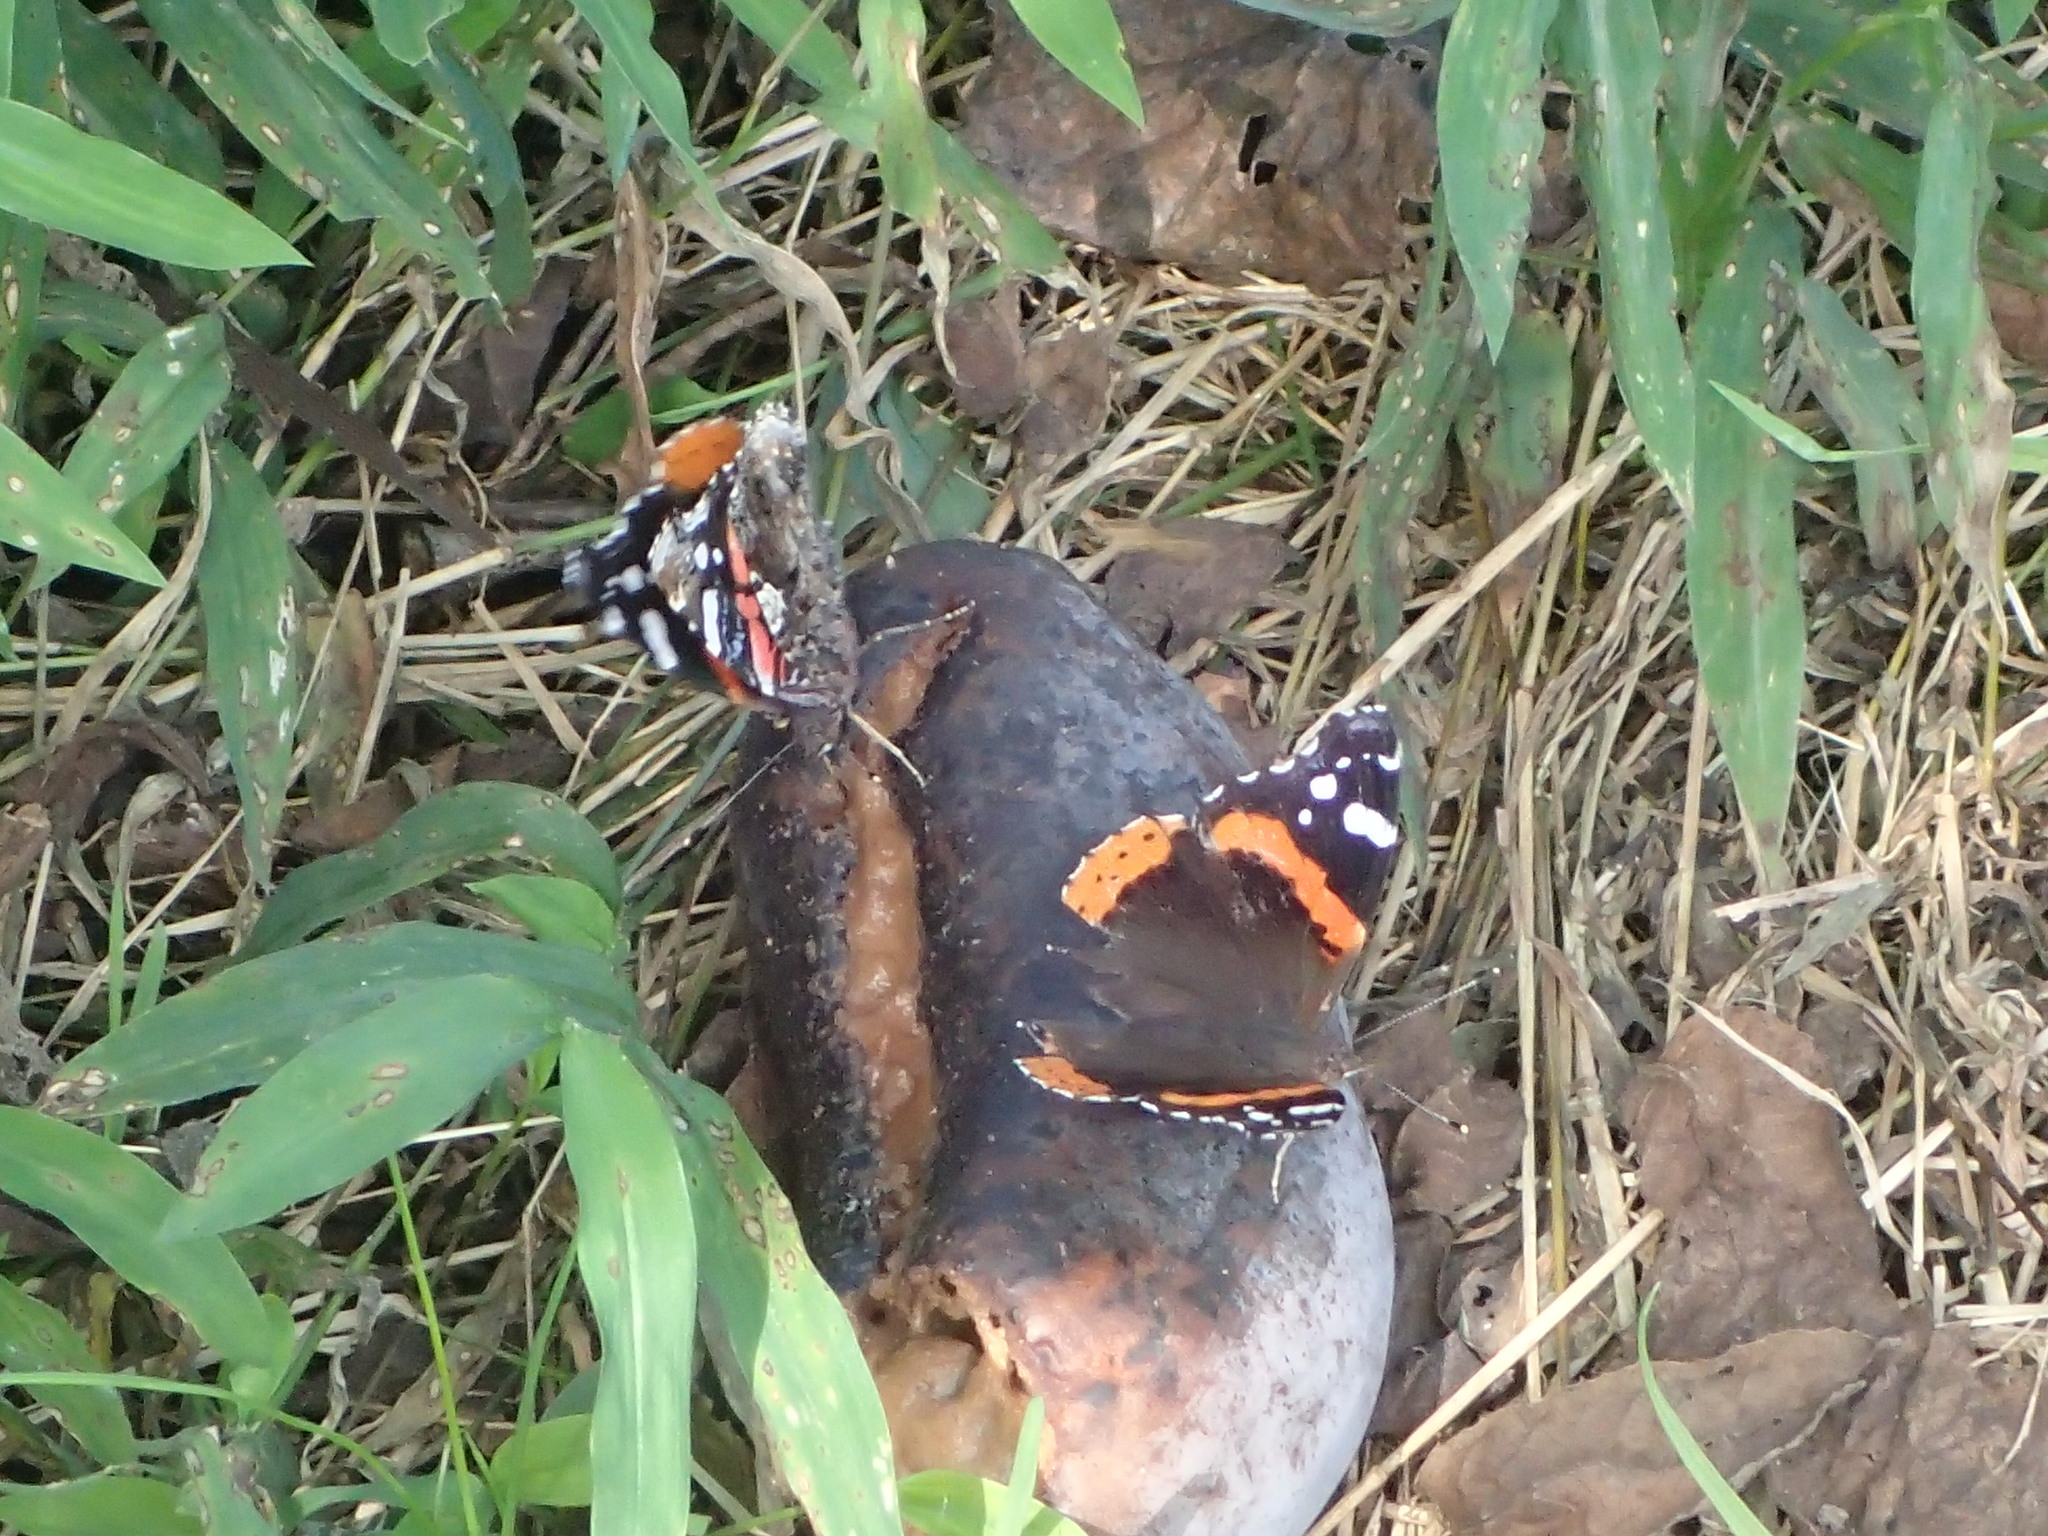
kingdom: Animalia
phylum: Arthropoda
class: Insecta
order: Lepidoptera
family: Nymphalidae
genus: Vanessa
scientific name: Vanessa atalanta
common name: Red admiral
